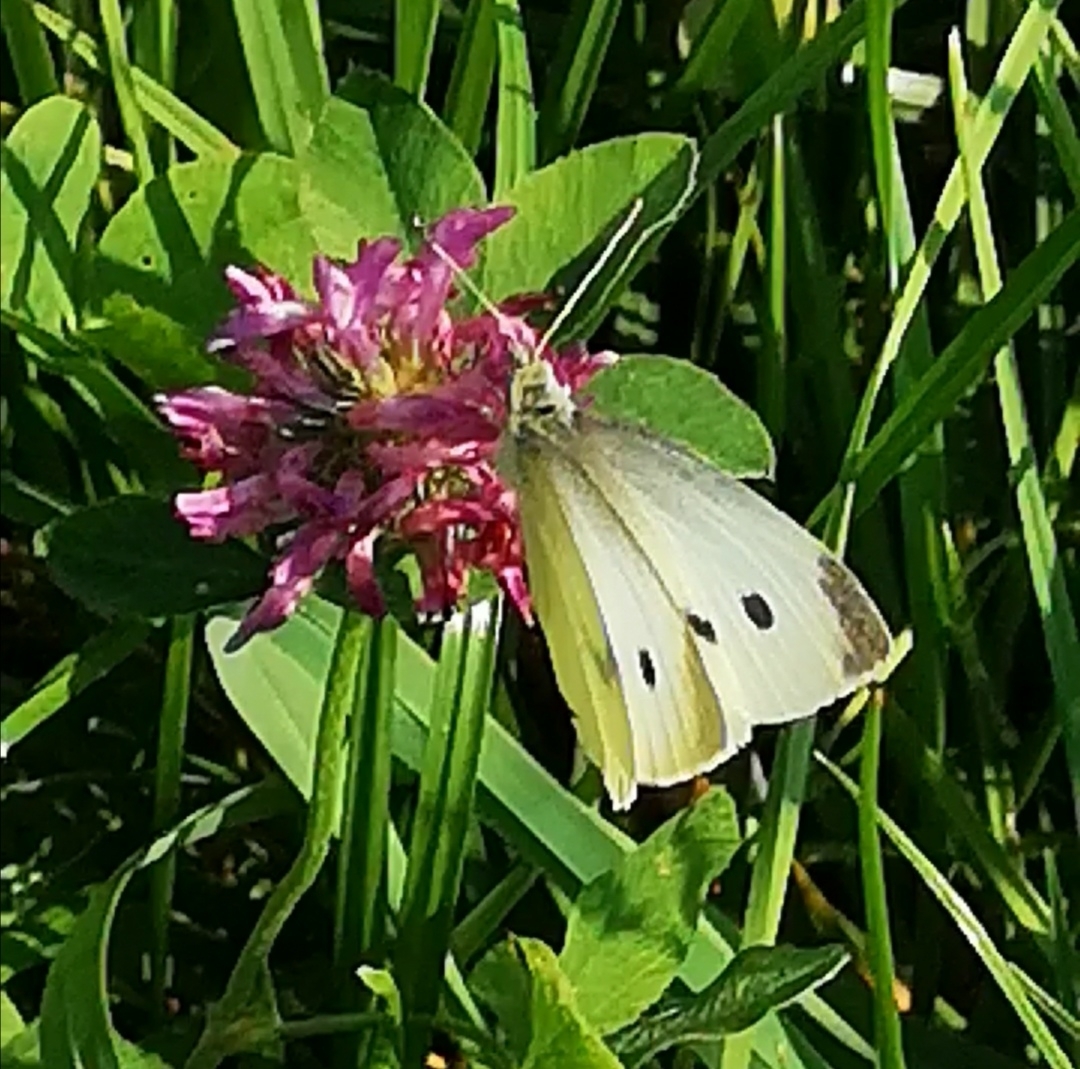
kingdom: Animalia
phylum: Arthropoda
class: Insecta
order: Lepidoptera
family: Pieridae
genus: Pieris
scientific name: Pieris rapae
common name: Small white
